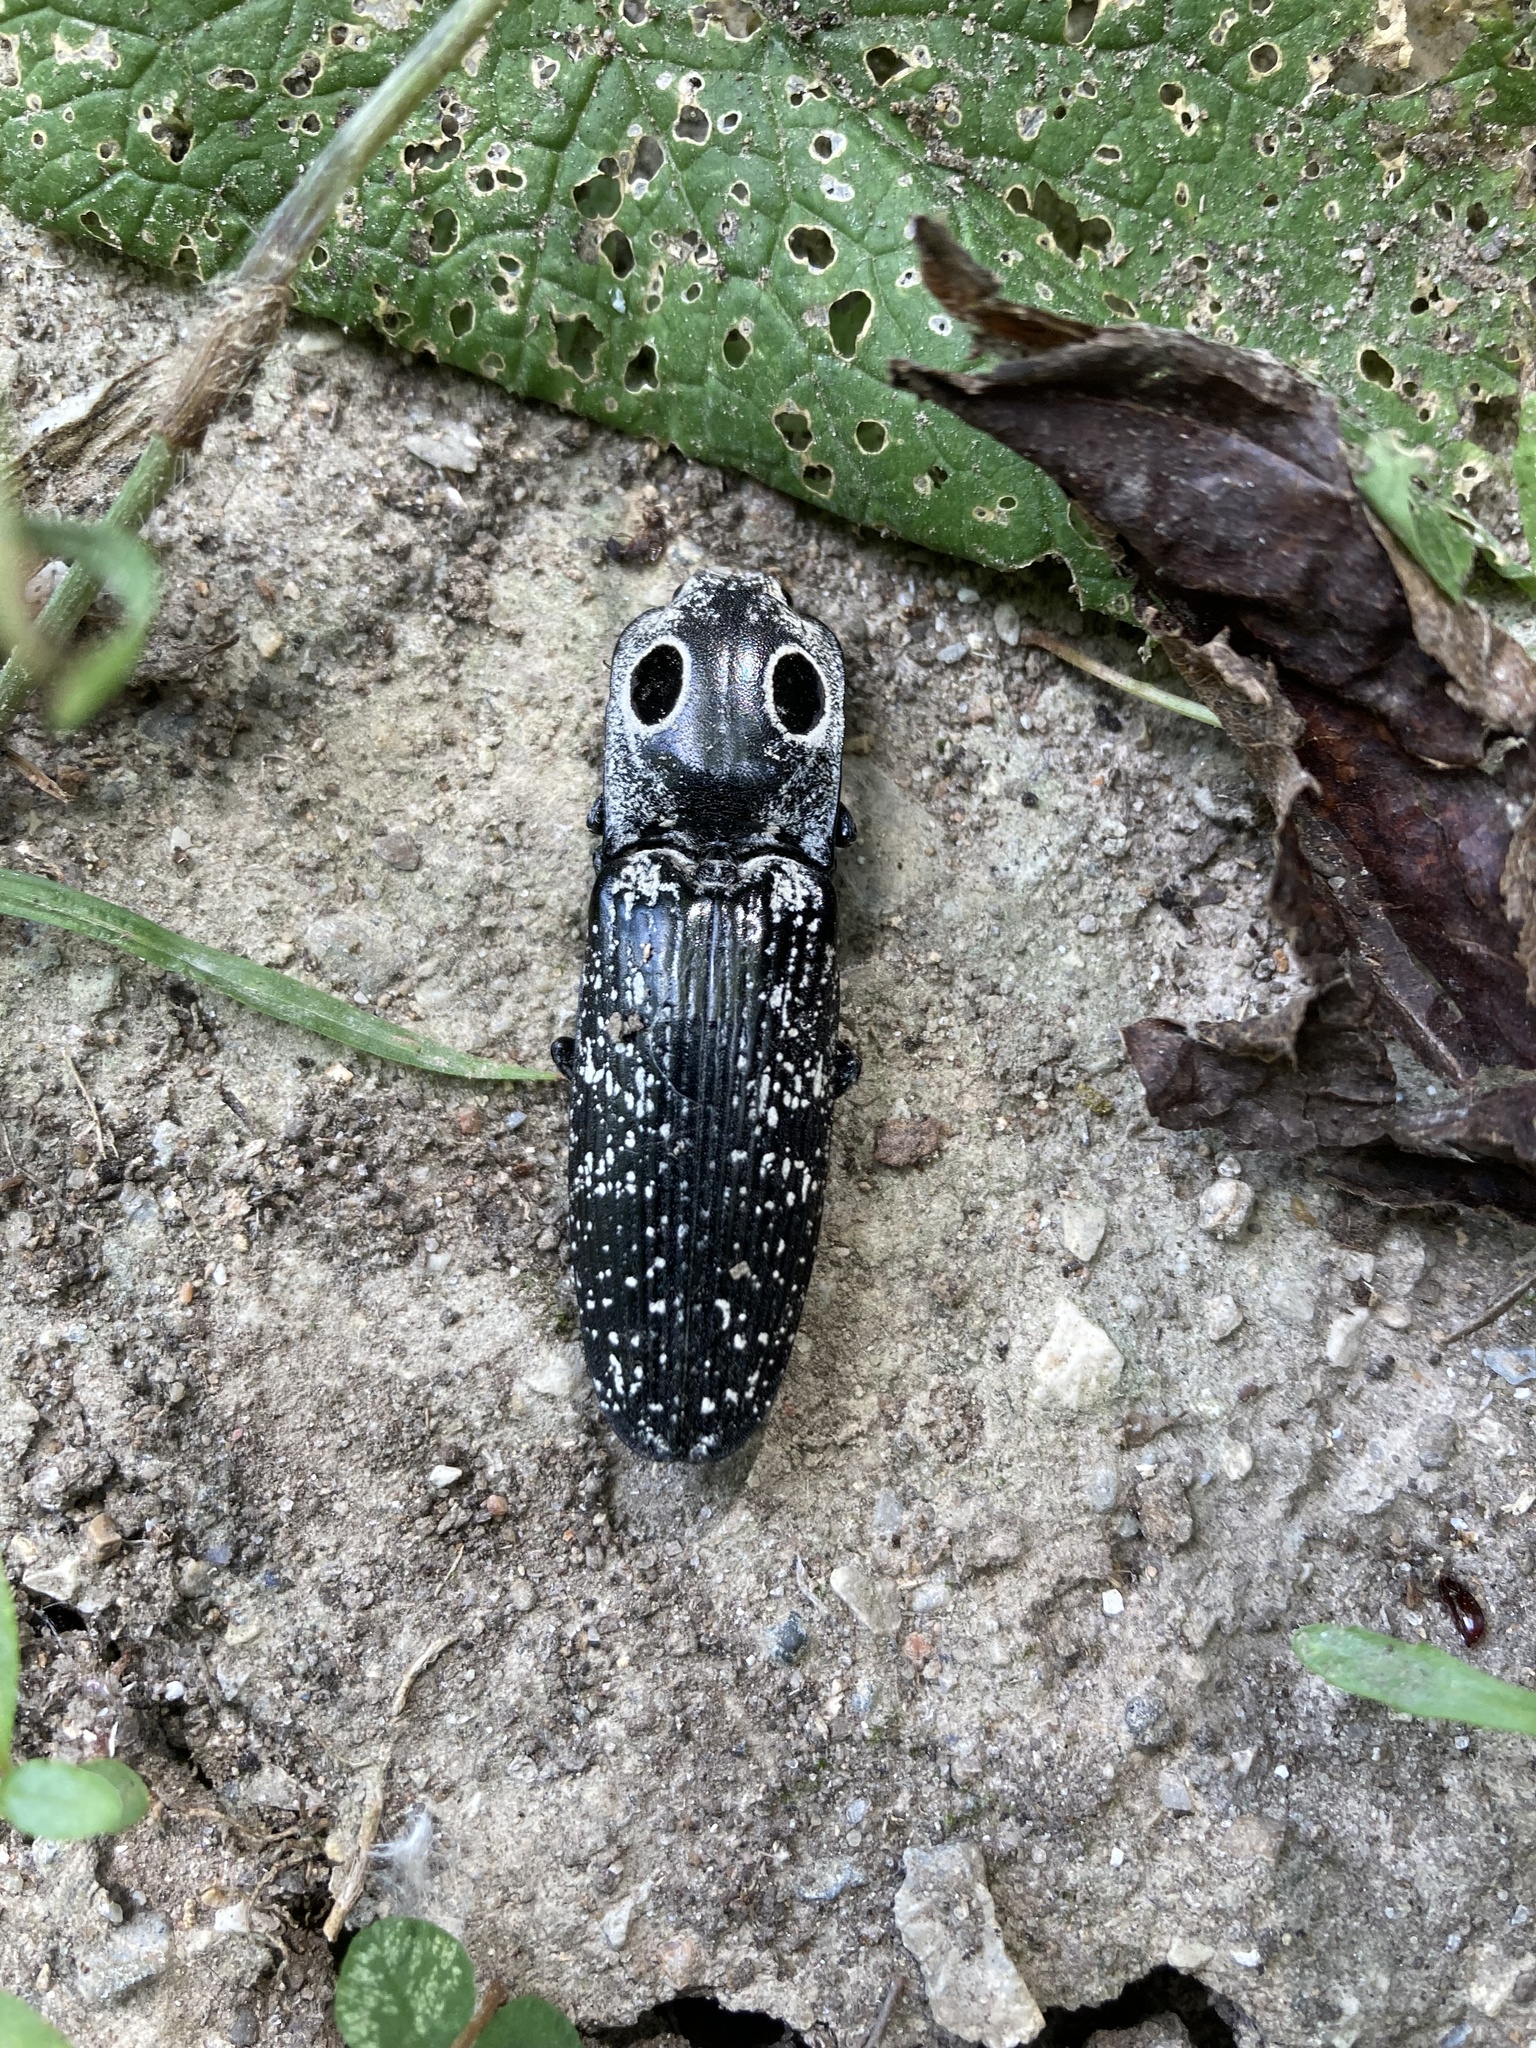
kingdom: Animalia
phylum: Arthropoda
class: Insecta
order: Coleoptera
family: Elateridae
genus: Alaus
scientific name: Alaus oculatus
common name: Eastern eyed click beetle
